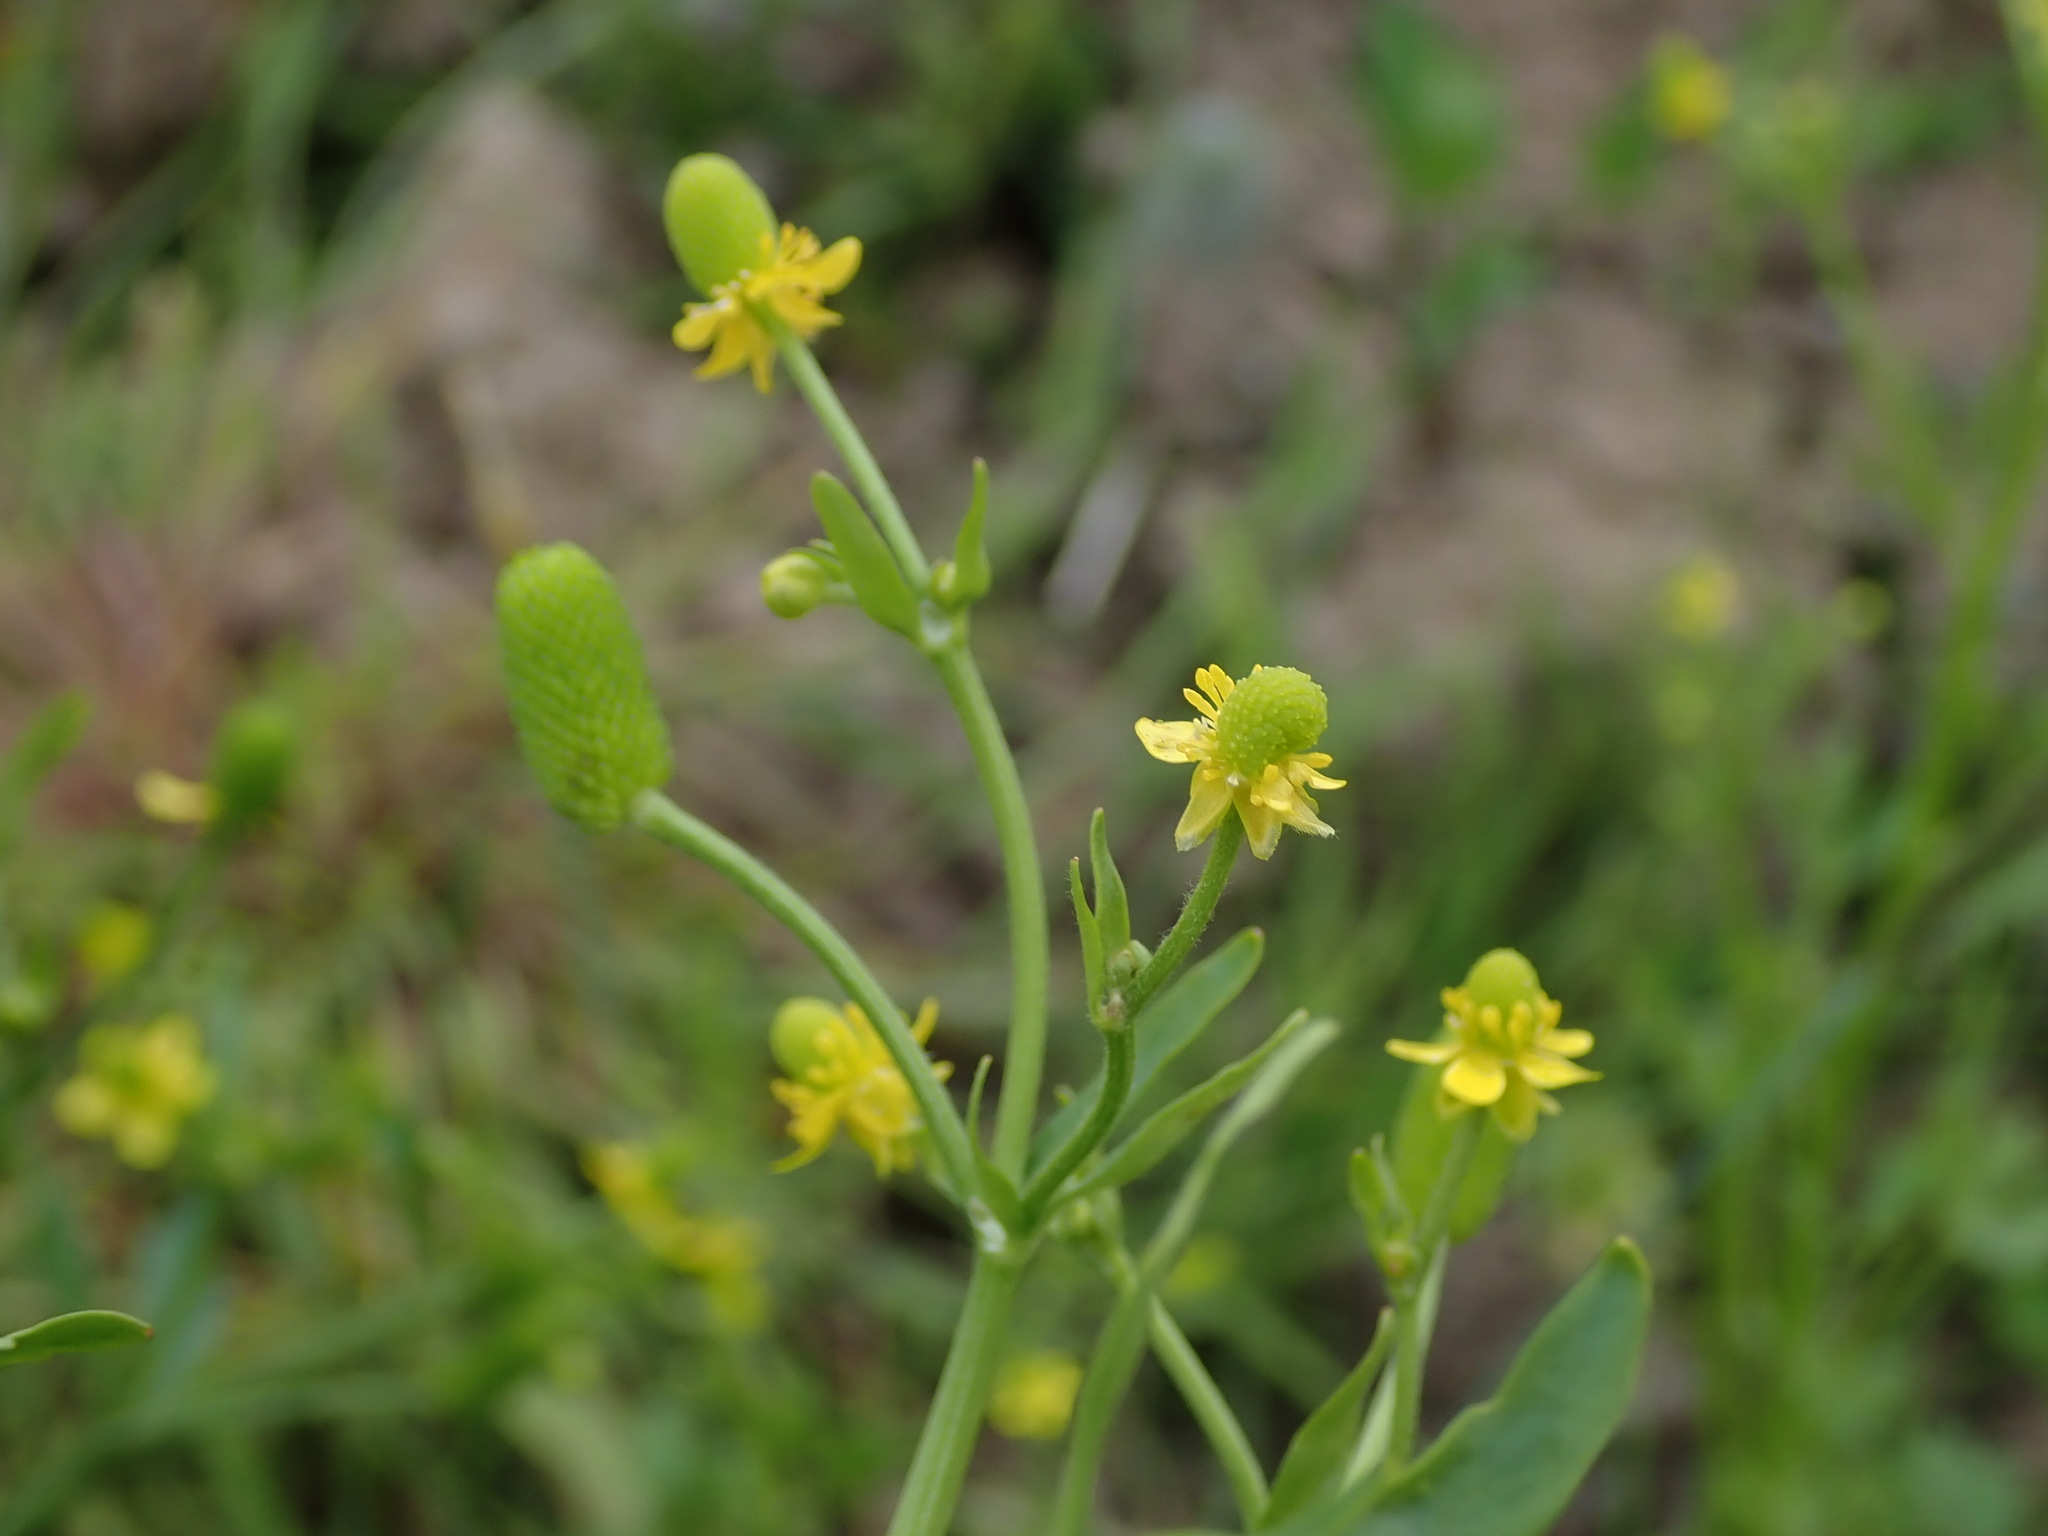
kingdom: Plantae
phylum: Tracheophyta
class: Magnoliopsida
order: Ranunculales
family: Ranunculaceae
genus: Ranunculus
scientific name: Ranunculus sceleratus
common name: Celery-leaved buttercup
